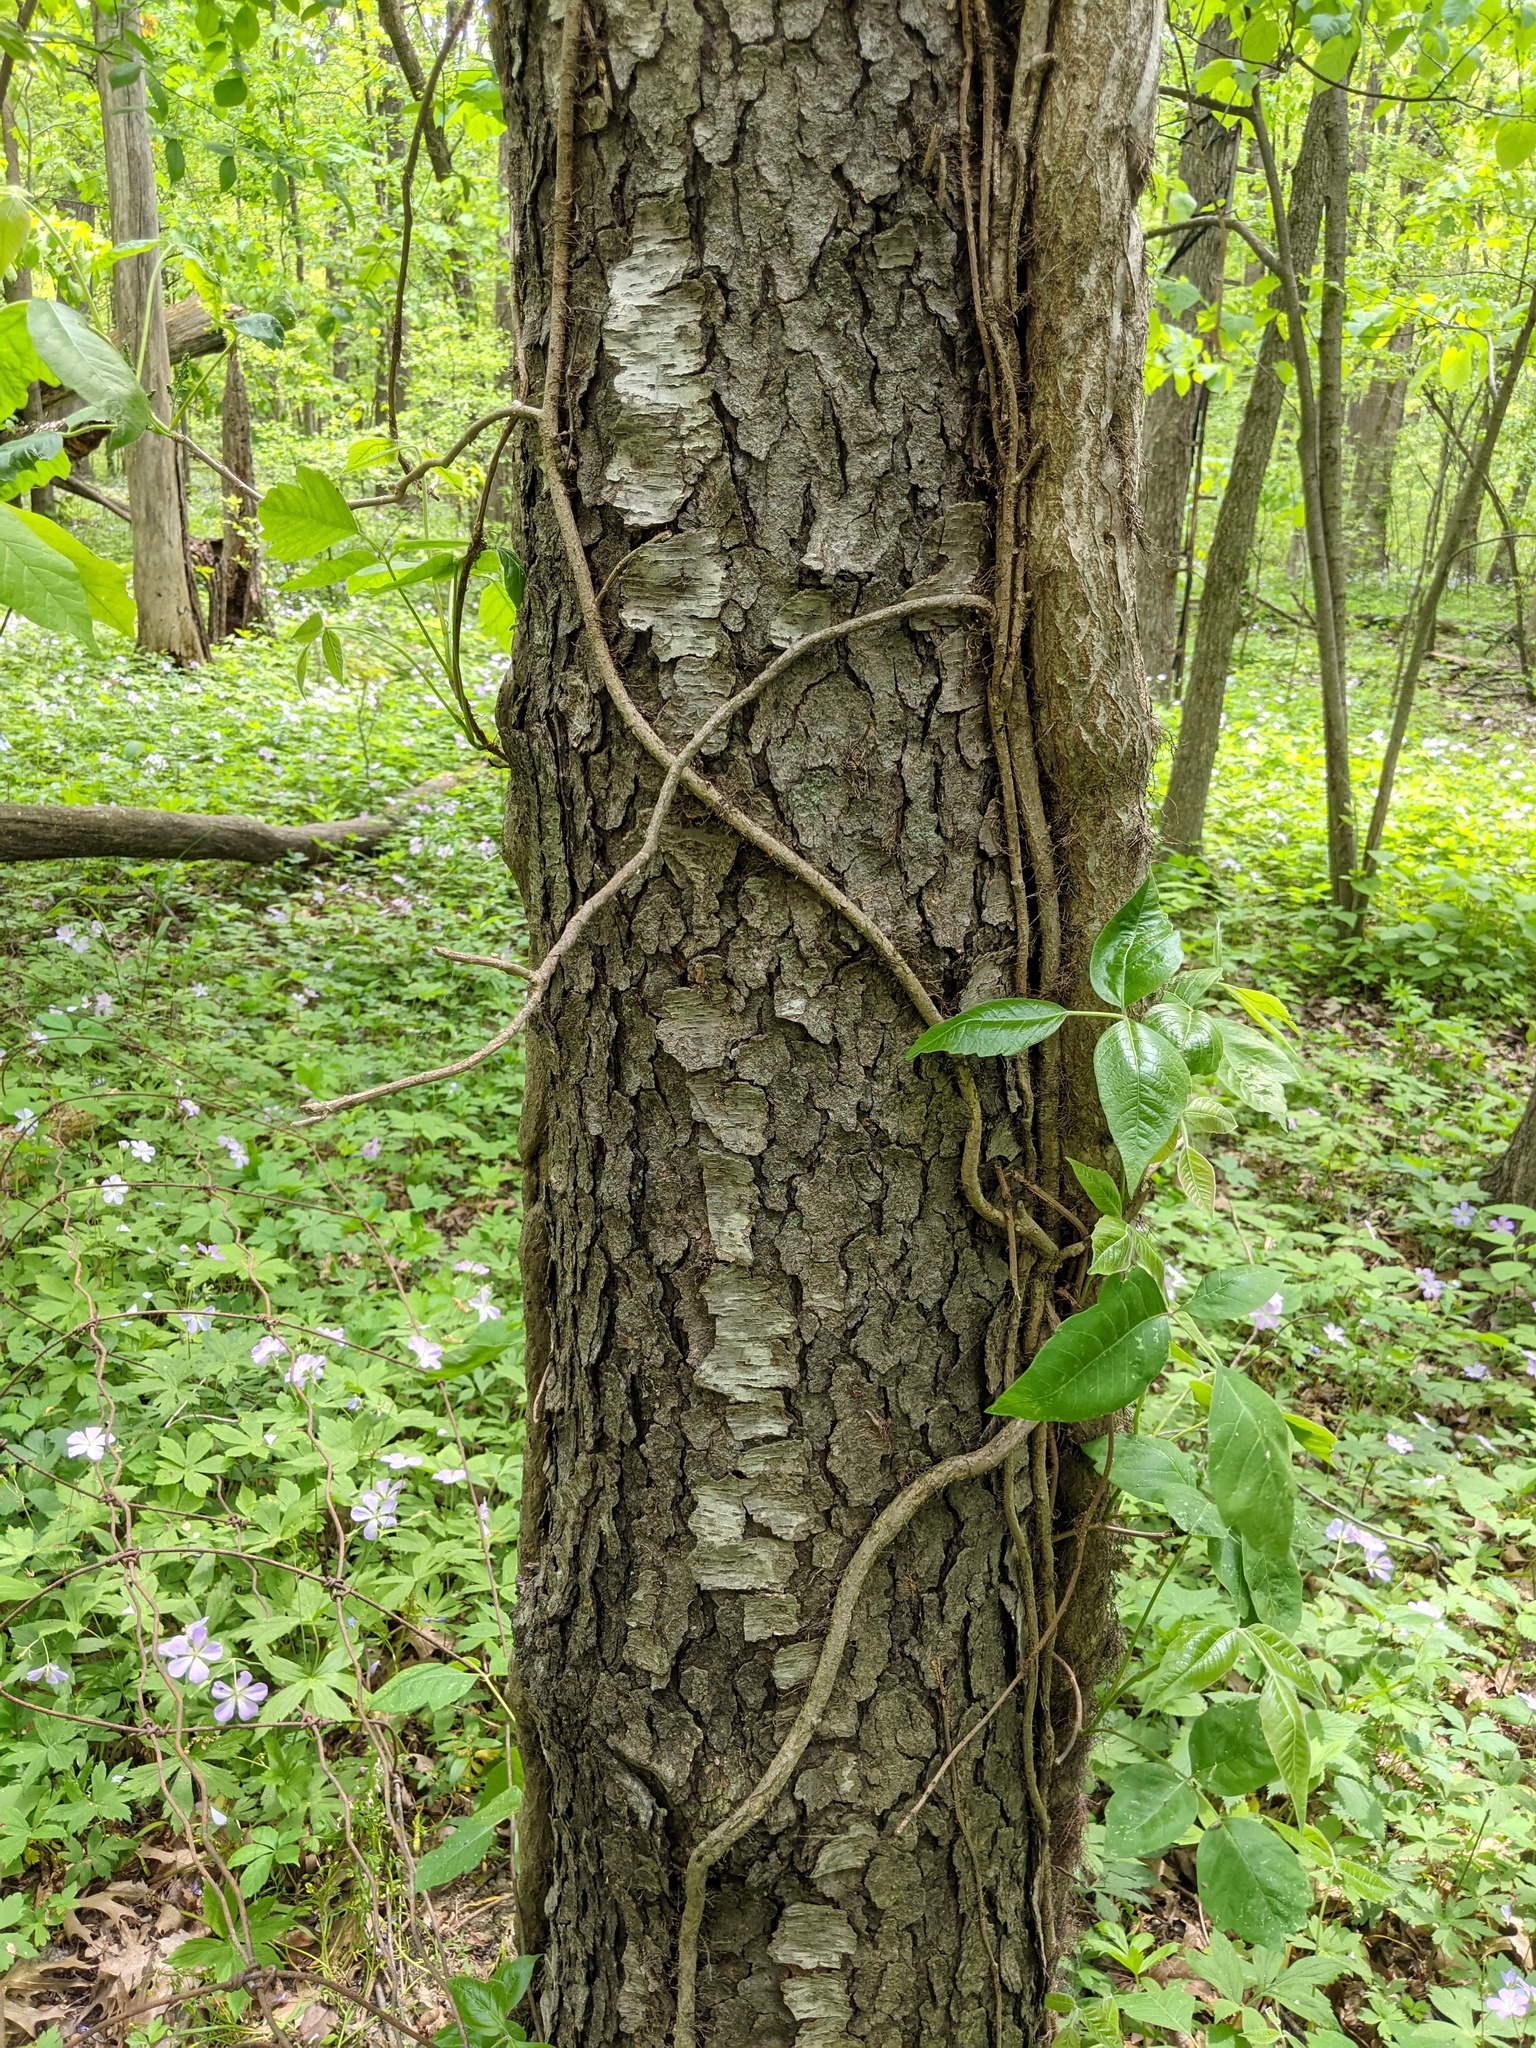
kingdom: Plantae
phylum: Tracheophyta
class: Magnoliopsida
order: Rosales
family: Rosaceae
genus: Prunus
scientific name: Prunus serotina
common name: Black cherry
